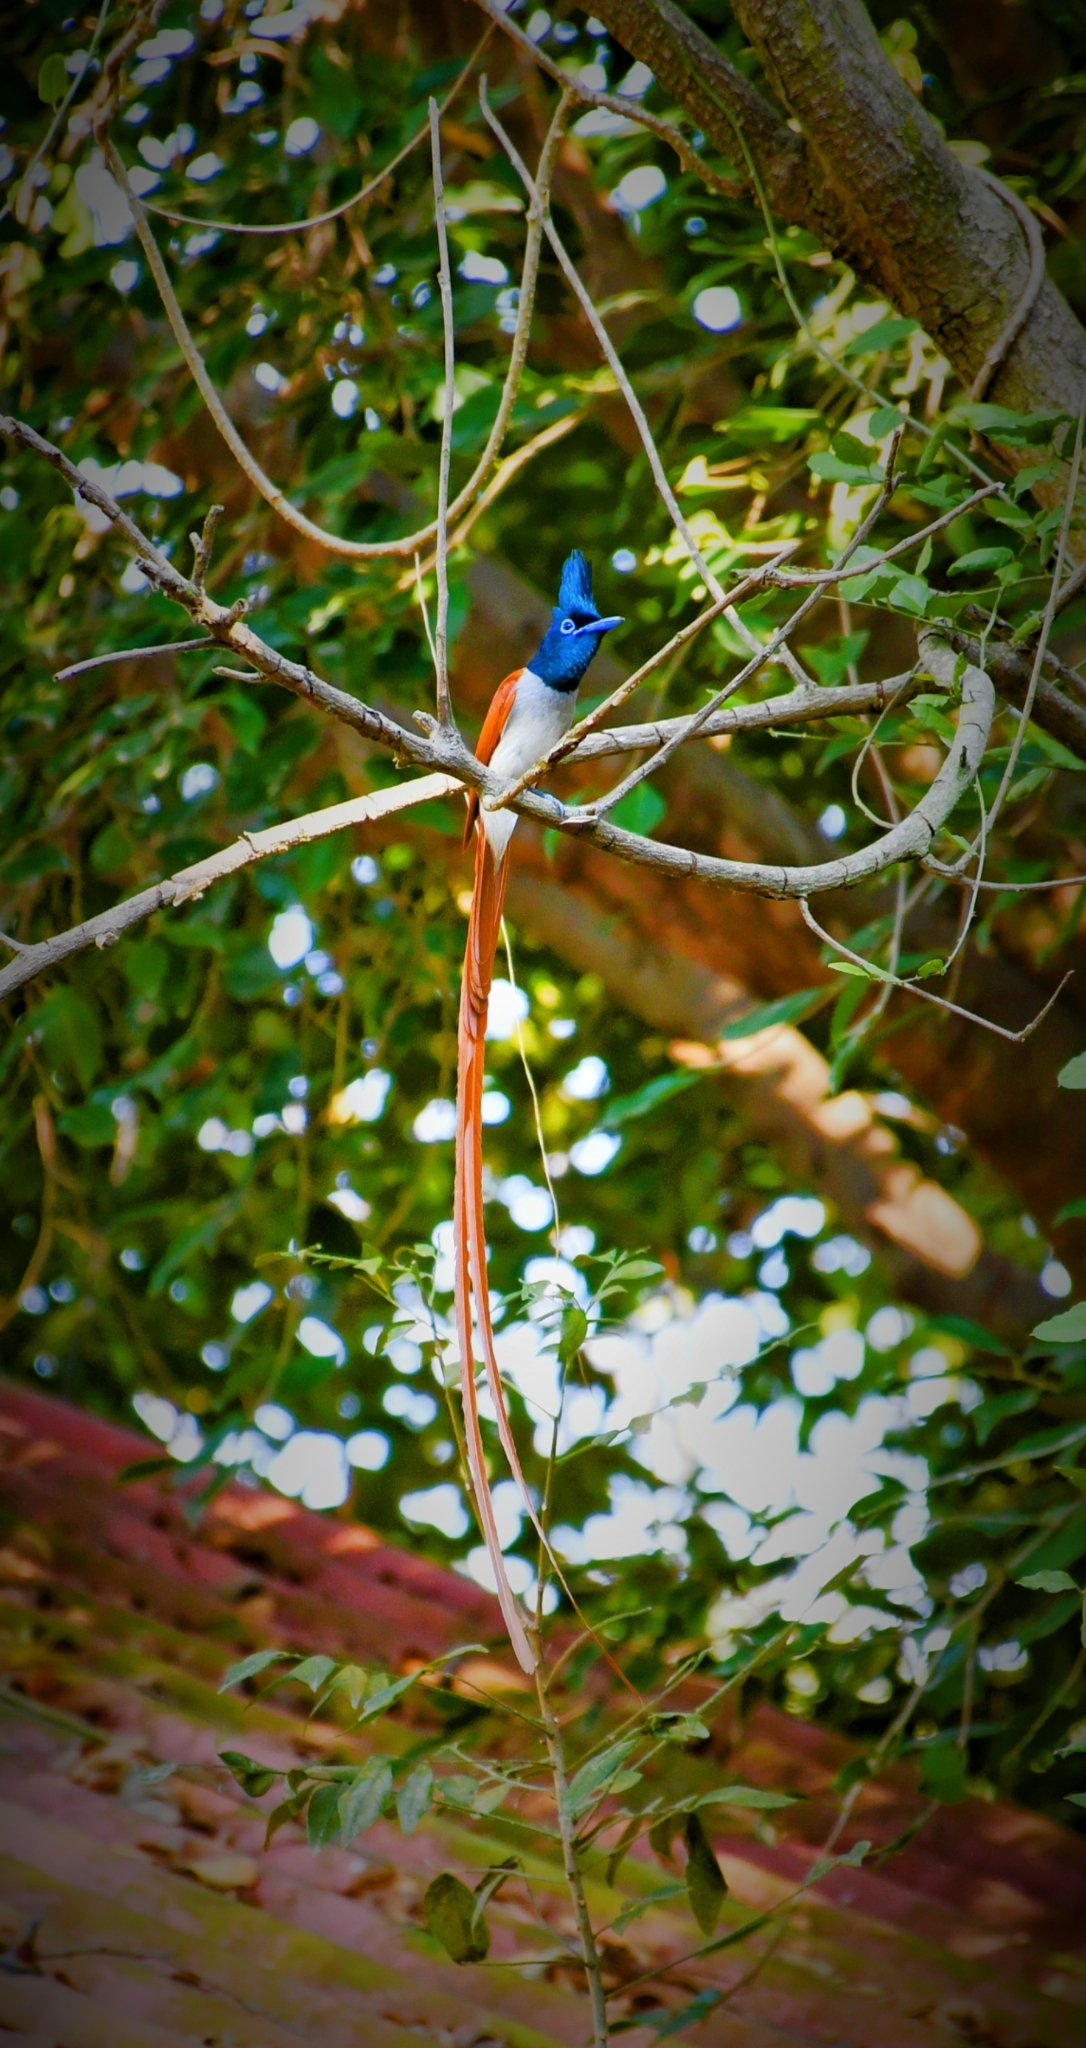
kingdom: Animalia
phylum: Chordata
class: Aves
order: Passeriformes
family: Monarchidae
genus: Terpsiphone
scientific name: Terpsiphone paradisi
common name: Indian paradise flycatcher
